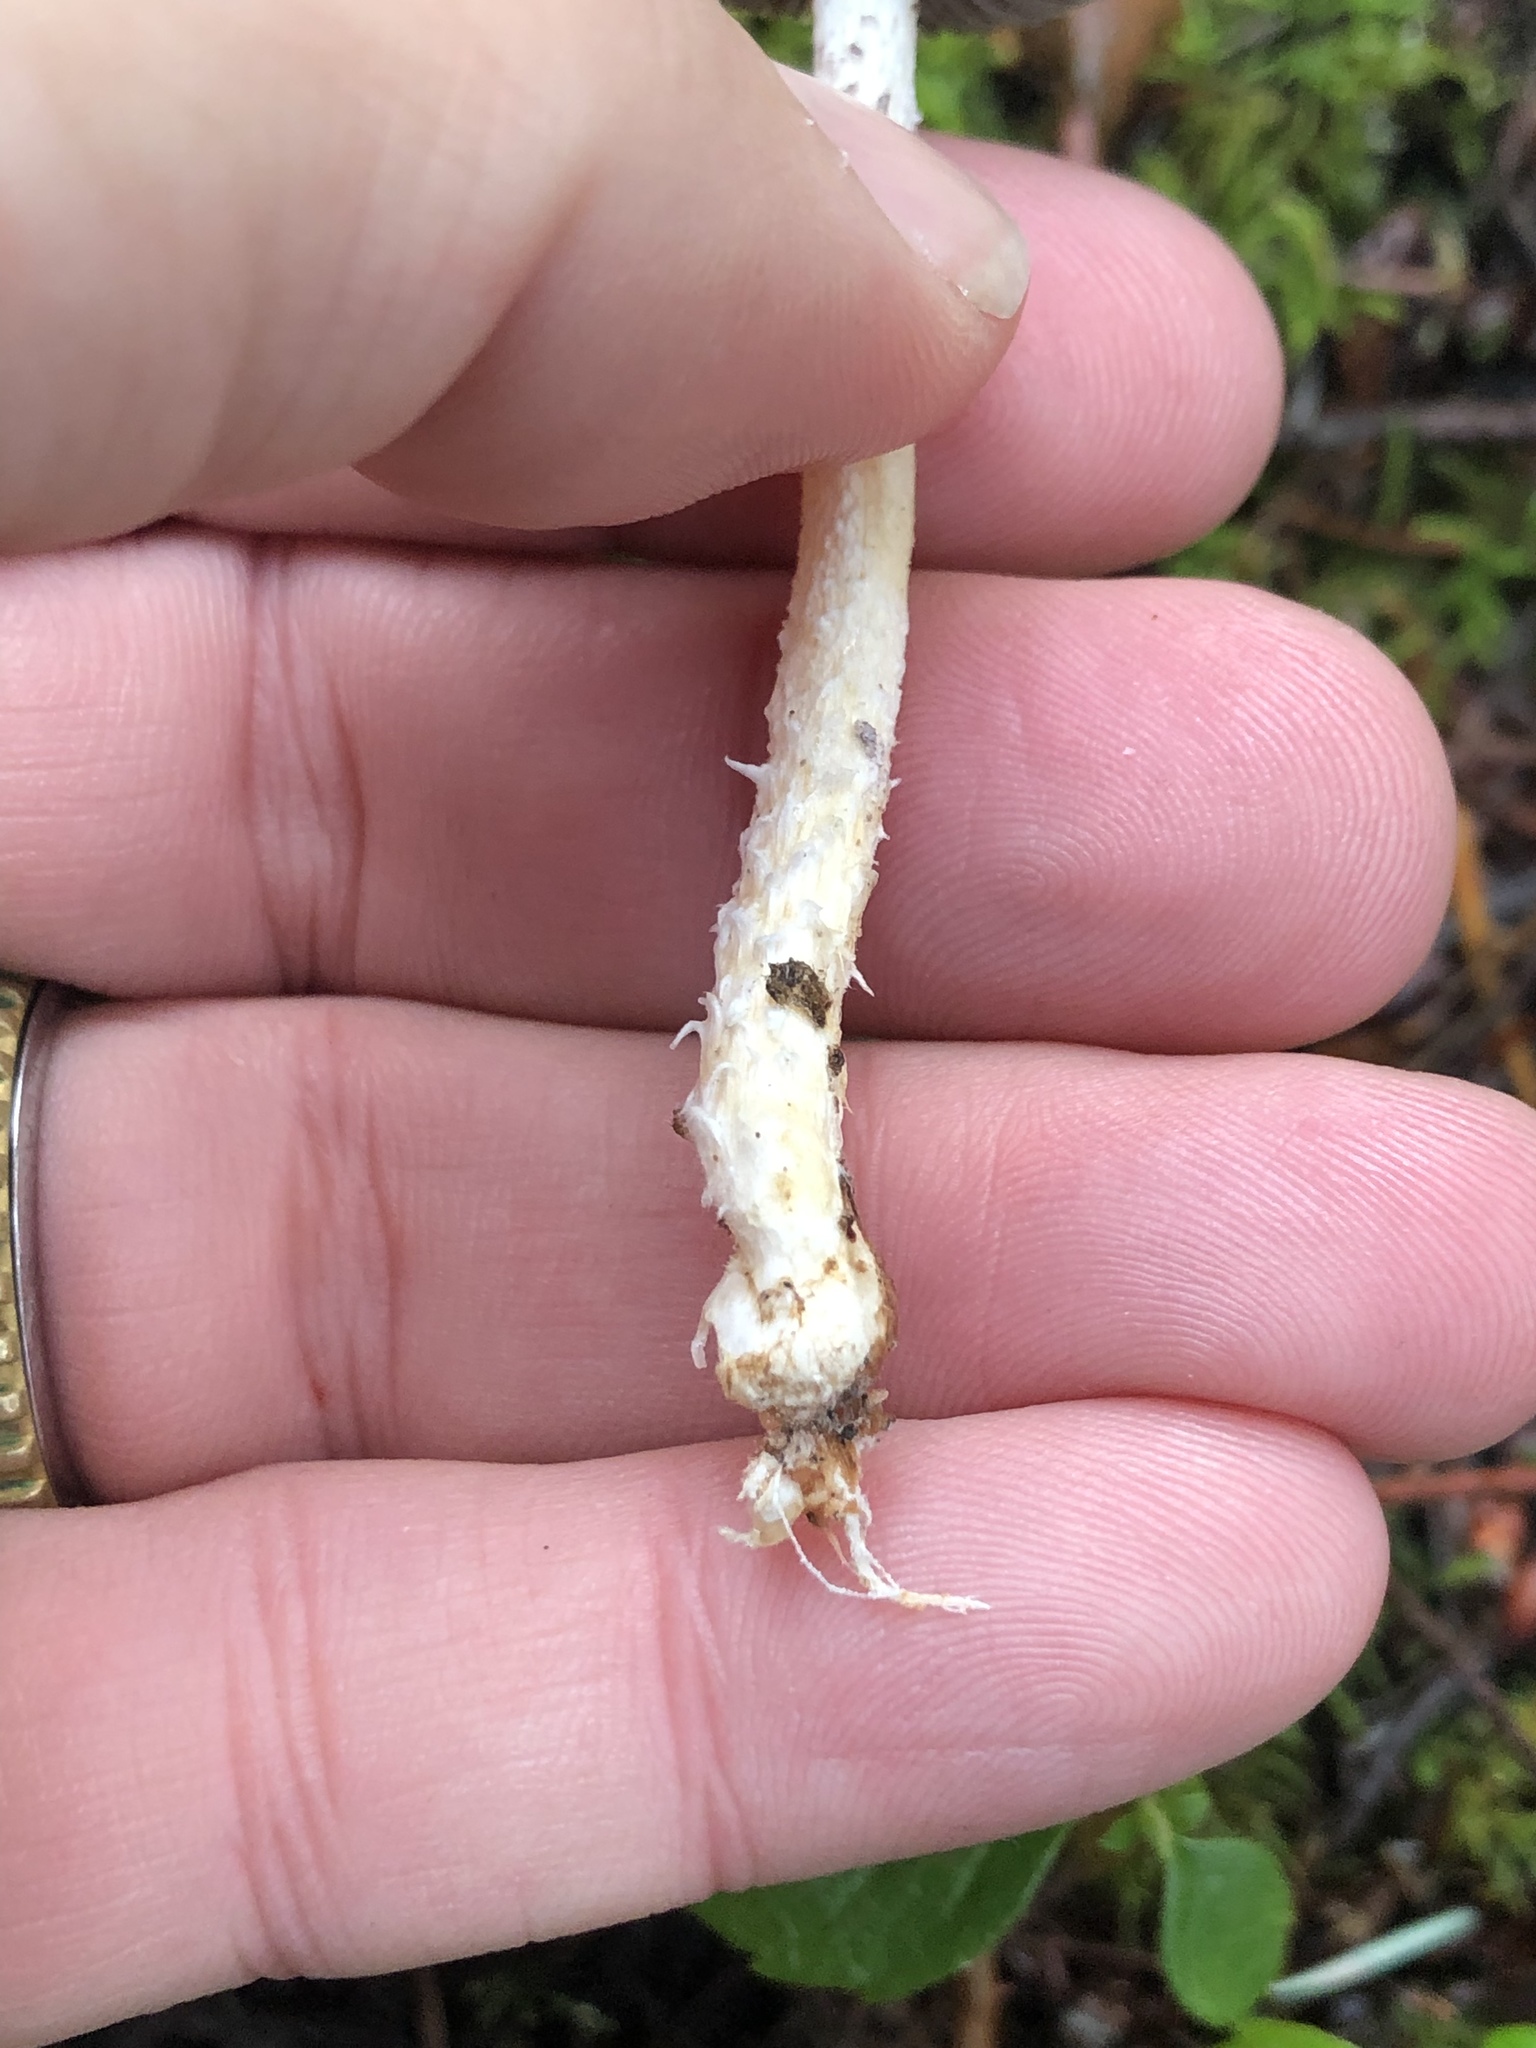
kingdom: Fungi
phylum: Basidiomycota
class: Agaricomycetes
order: Agaricales
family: Strophariaceae
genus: Stropharia
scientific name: Stropharia ambigua
